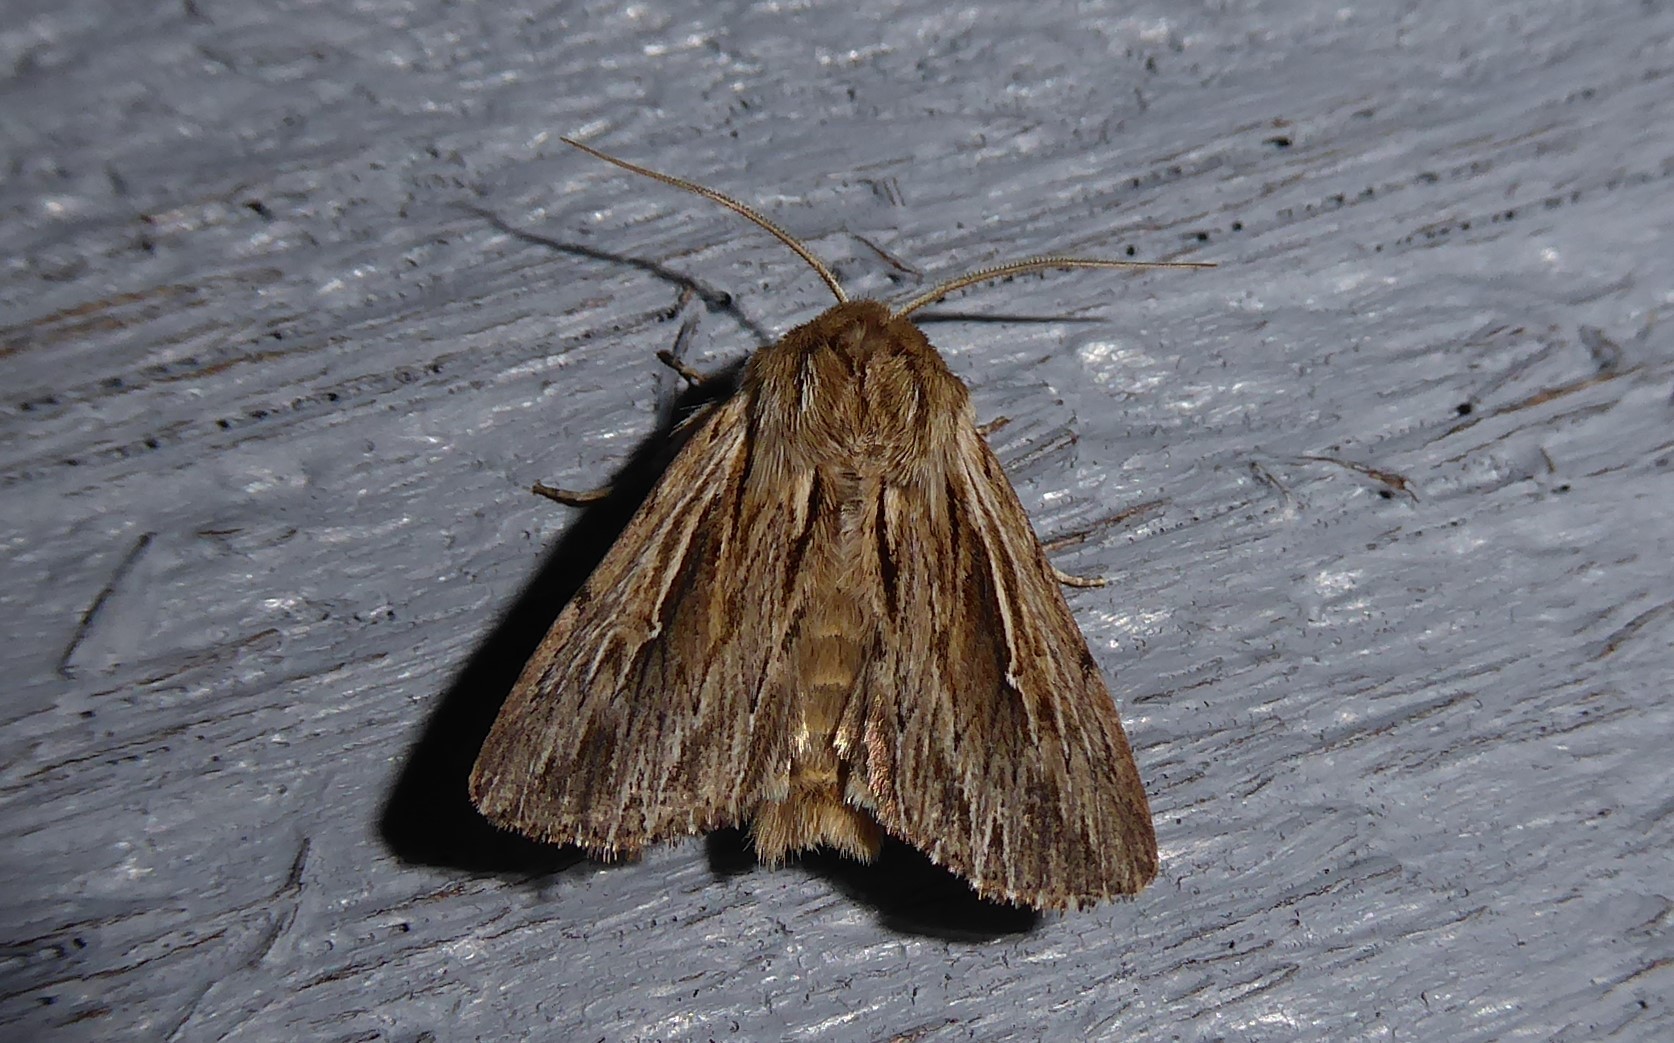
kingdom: Animalia
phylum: Arthropoda
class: Insecta
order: Lepidoptera
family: Noctuidae
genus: Persectania
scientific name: Persectania aversa
